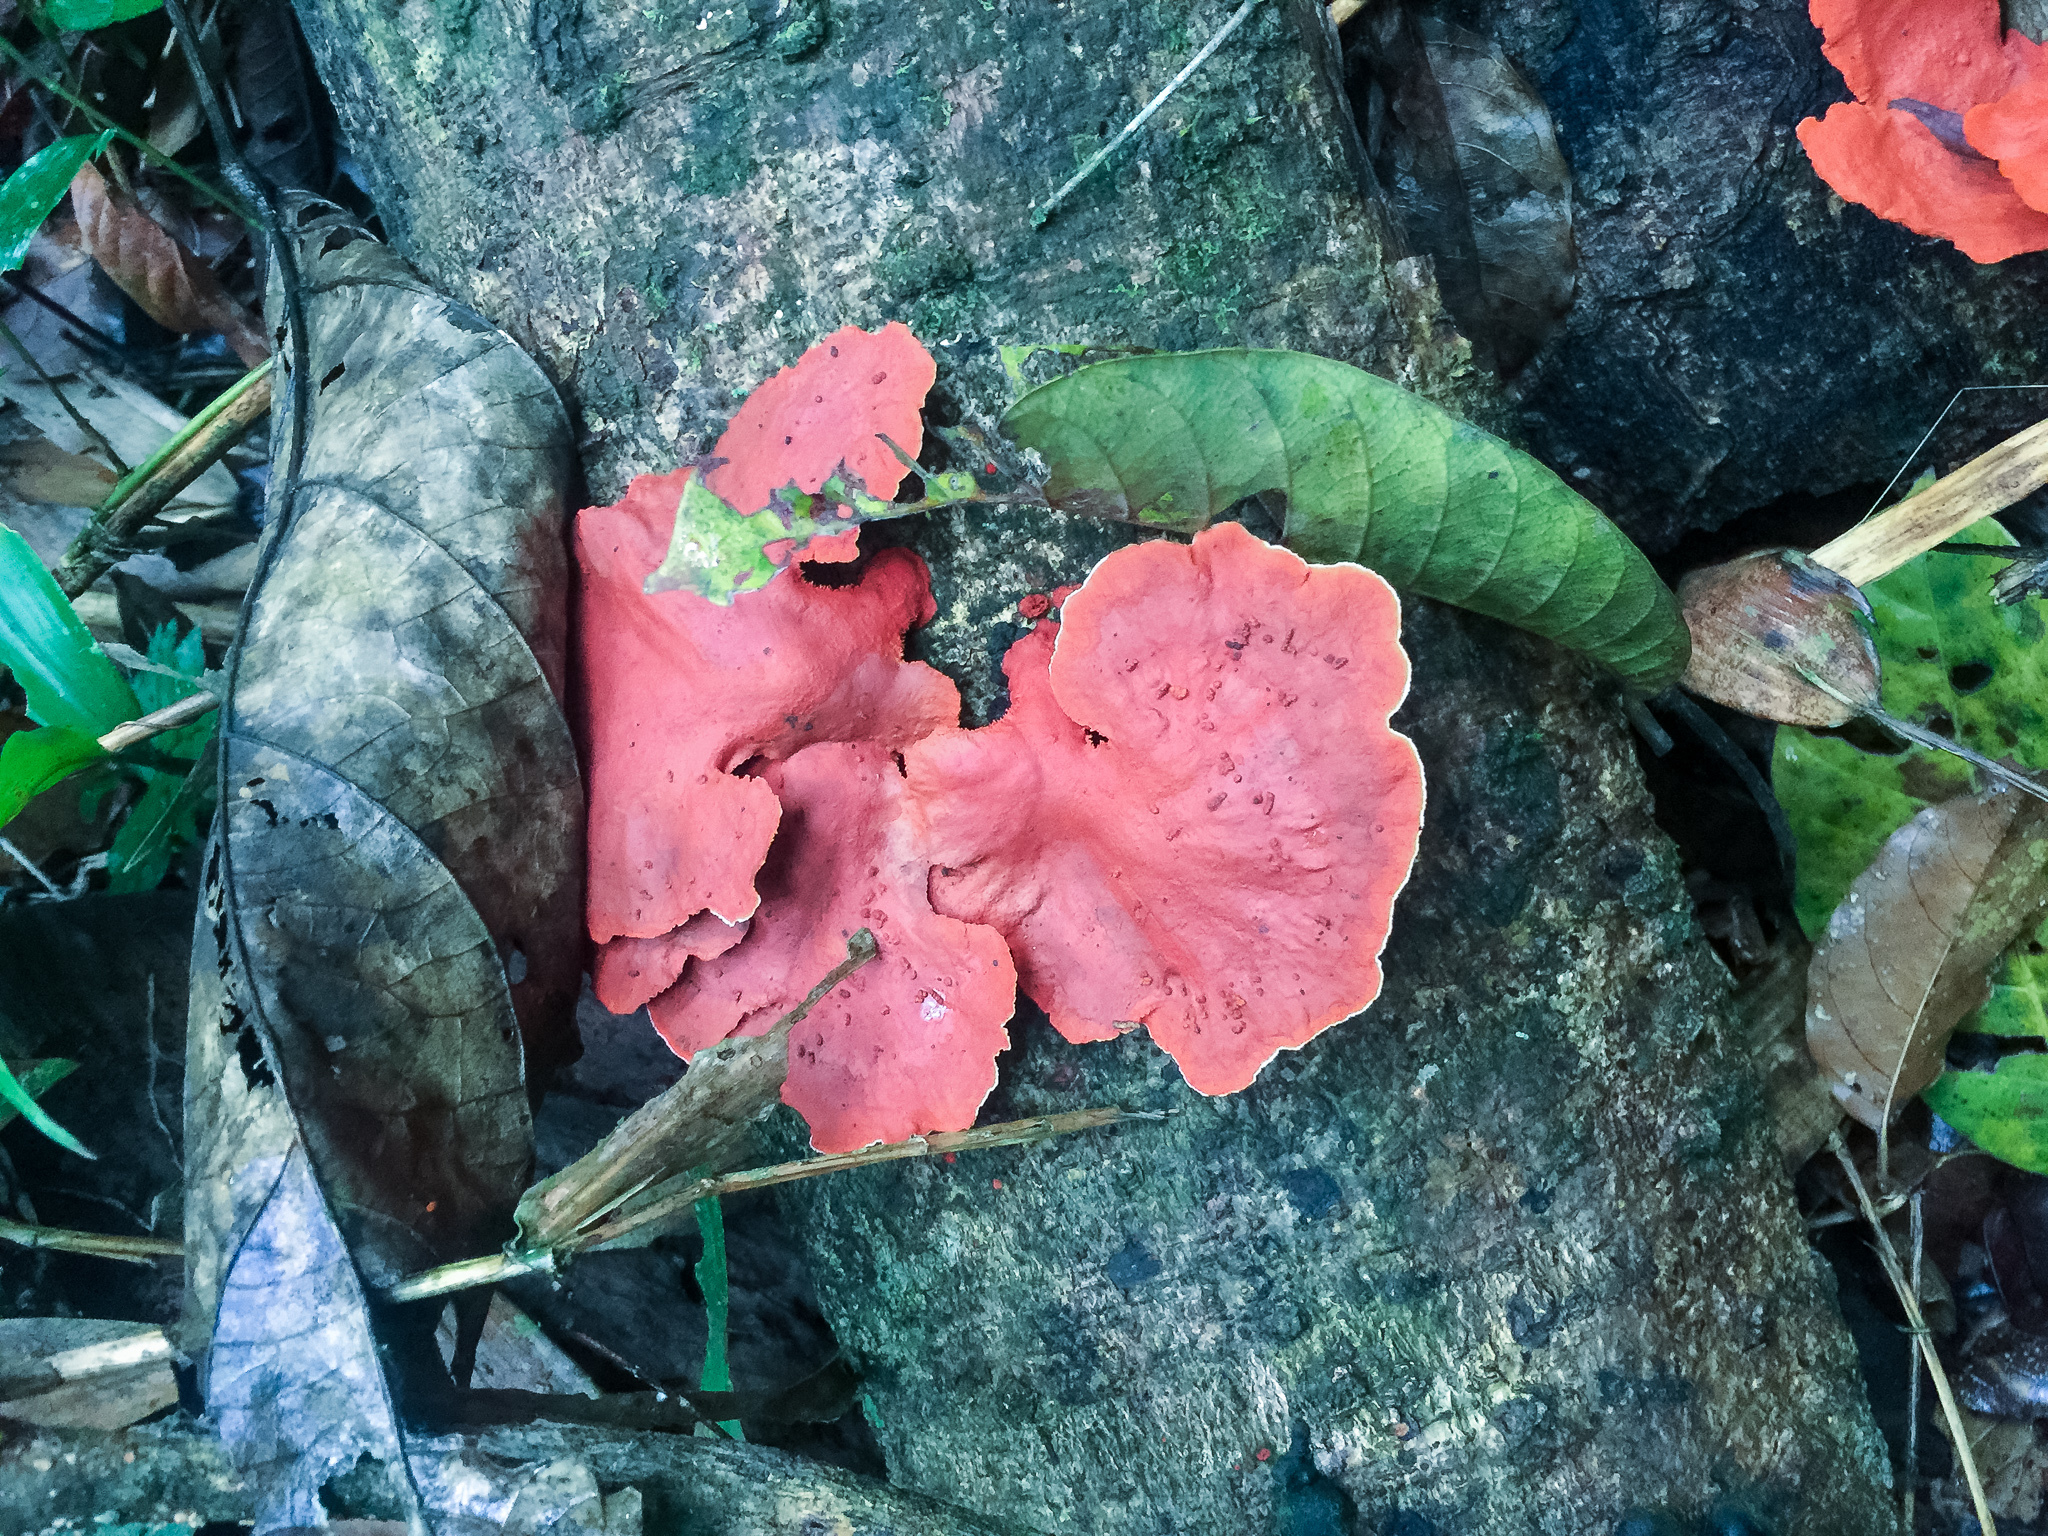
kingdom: Fungi
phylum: Basidiomycota
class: Agaricomycetes
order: Polyporales
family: Polyporaceae
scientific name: Polyporaceae
